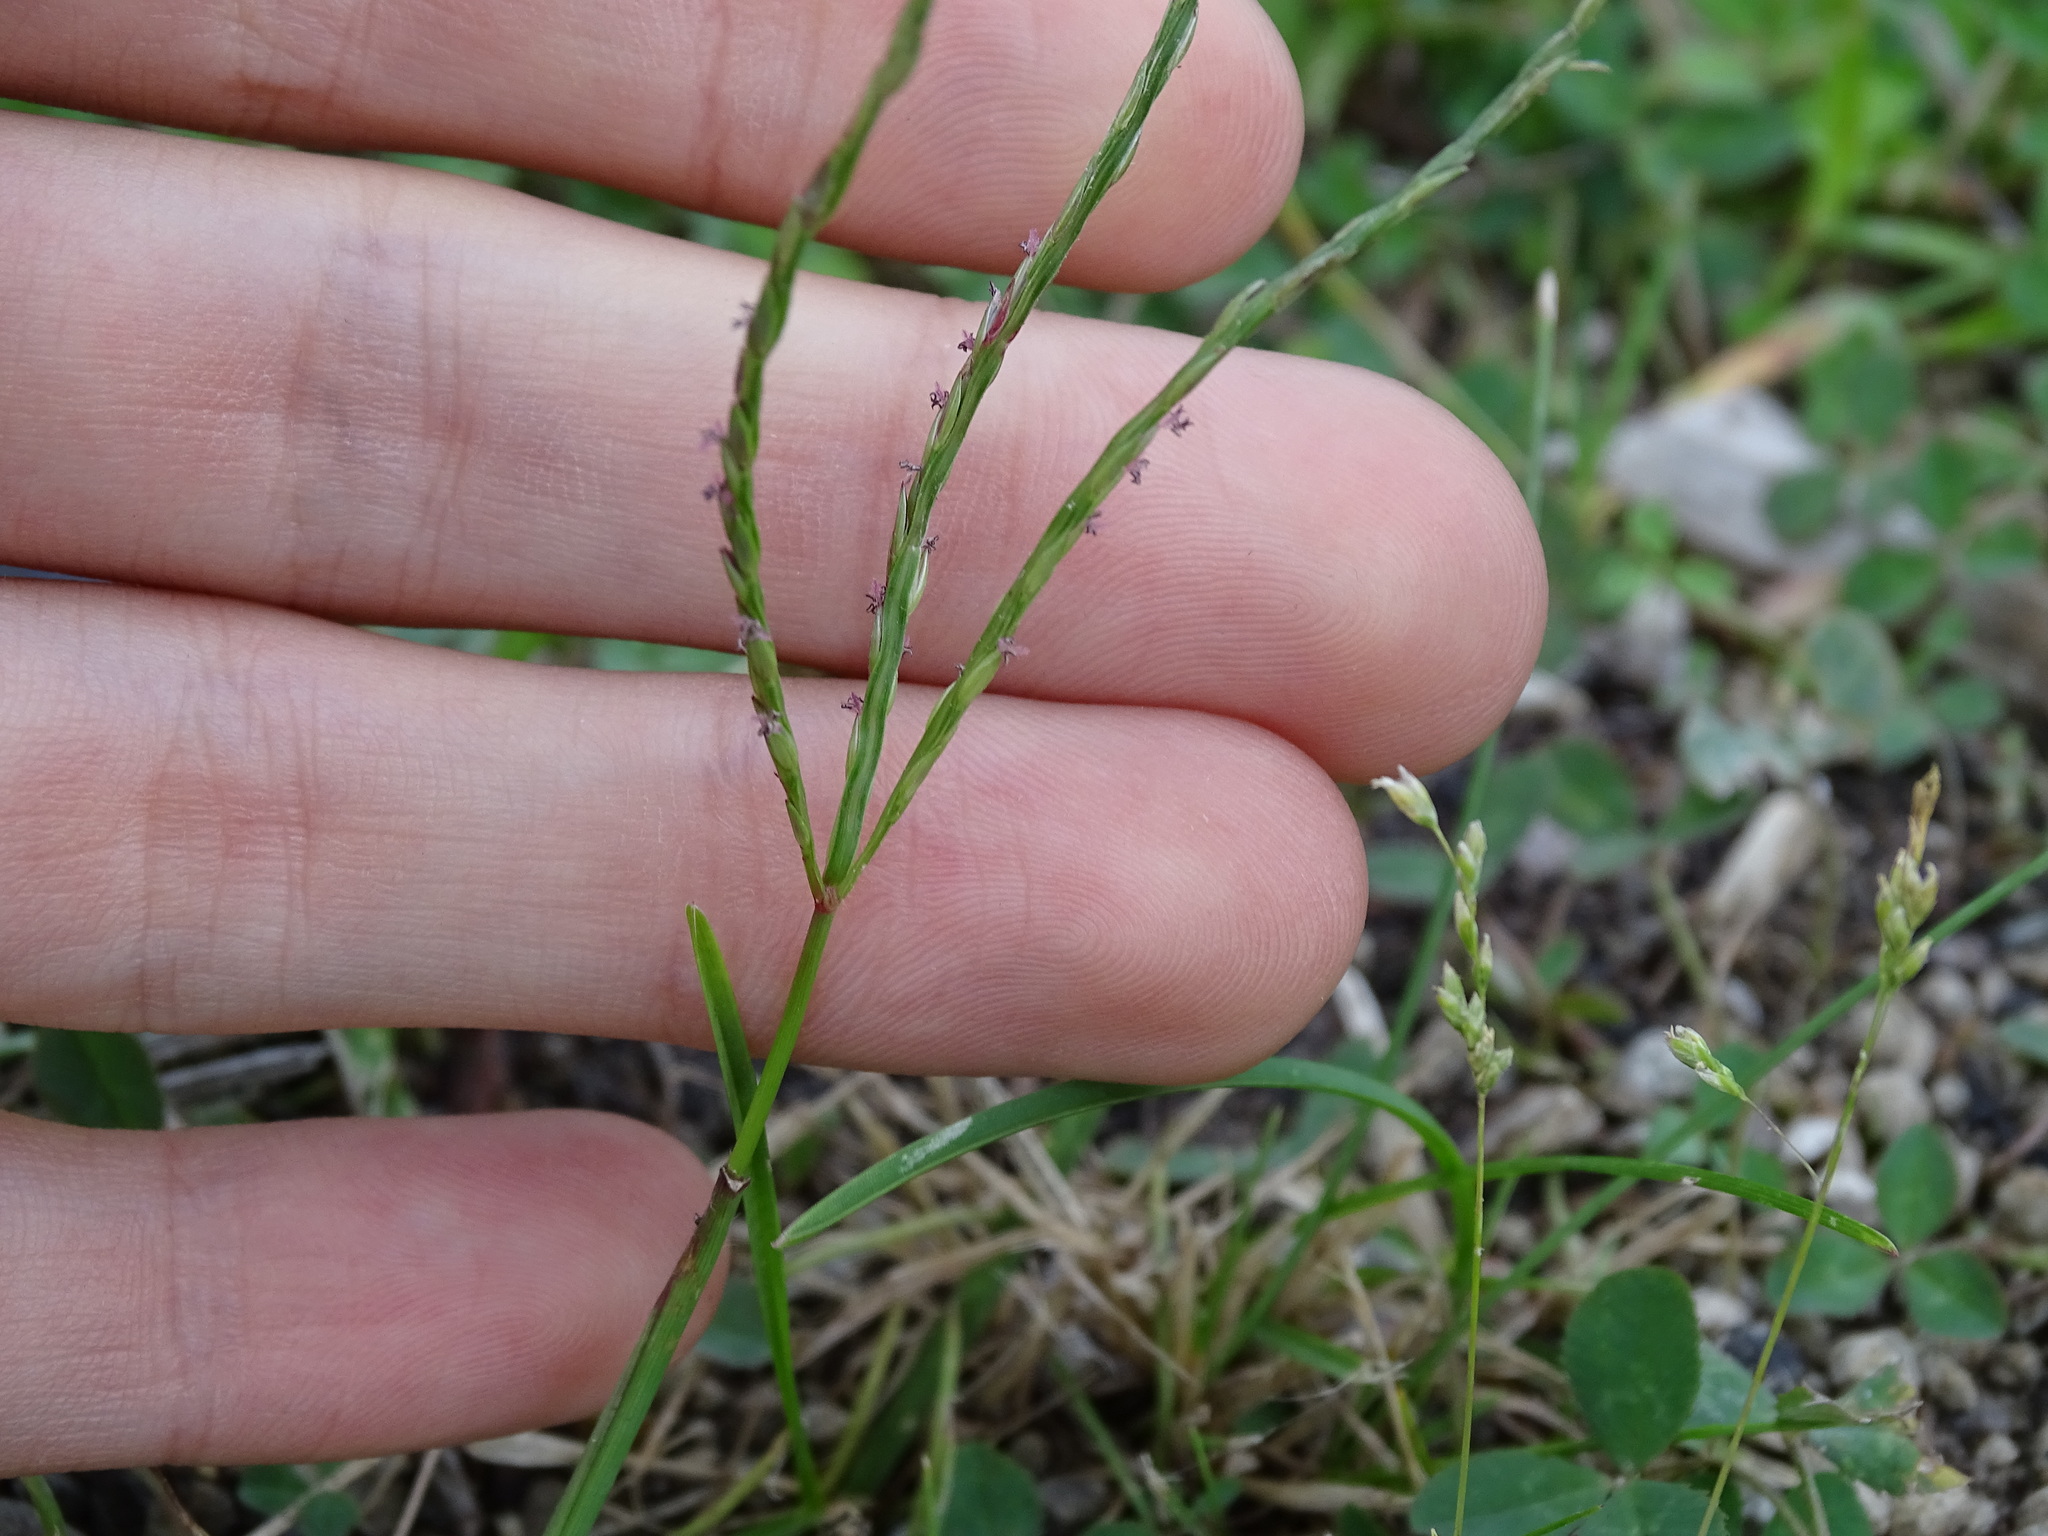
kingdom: Plantae
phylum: Tracheophyta
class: Liliopsida
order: Poales
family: Poaceae
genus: Digitaria
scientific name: Digitaria sanguinalis
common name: Hairy crabgrass
